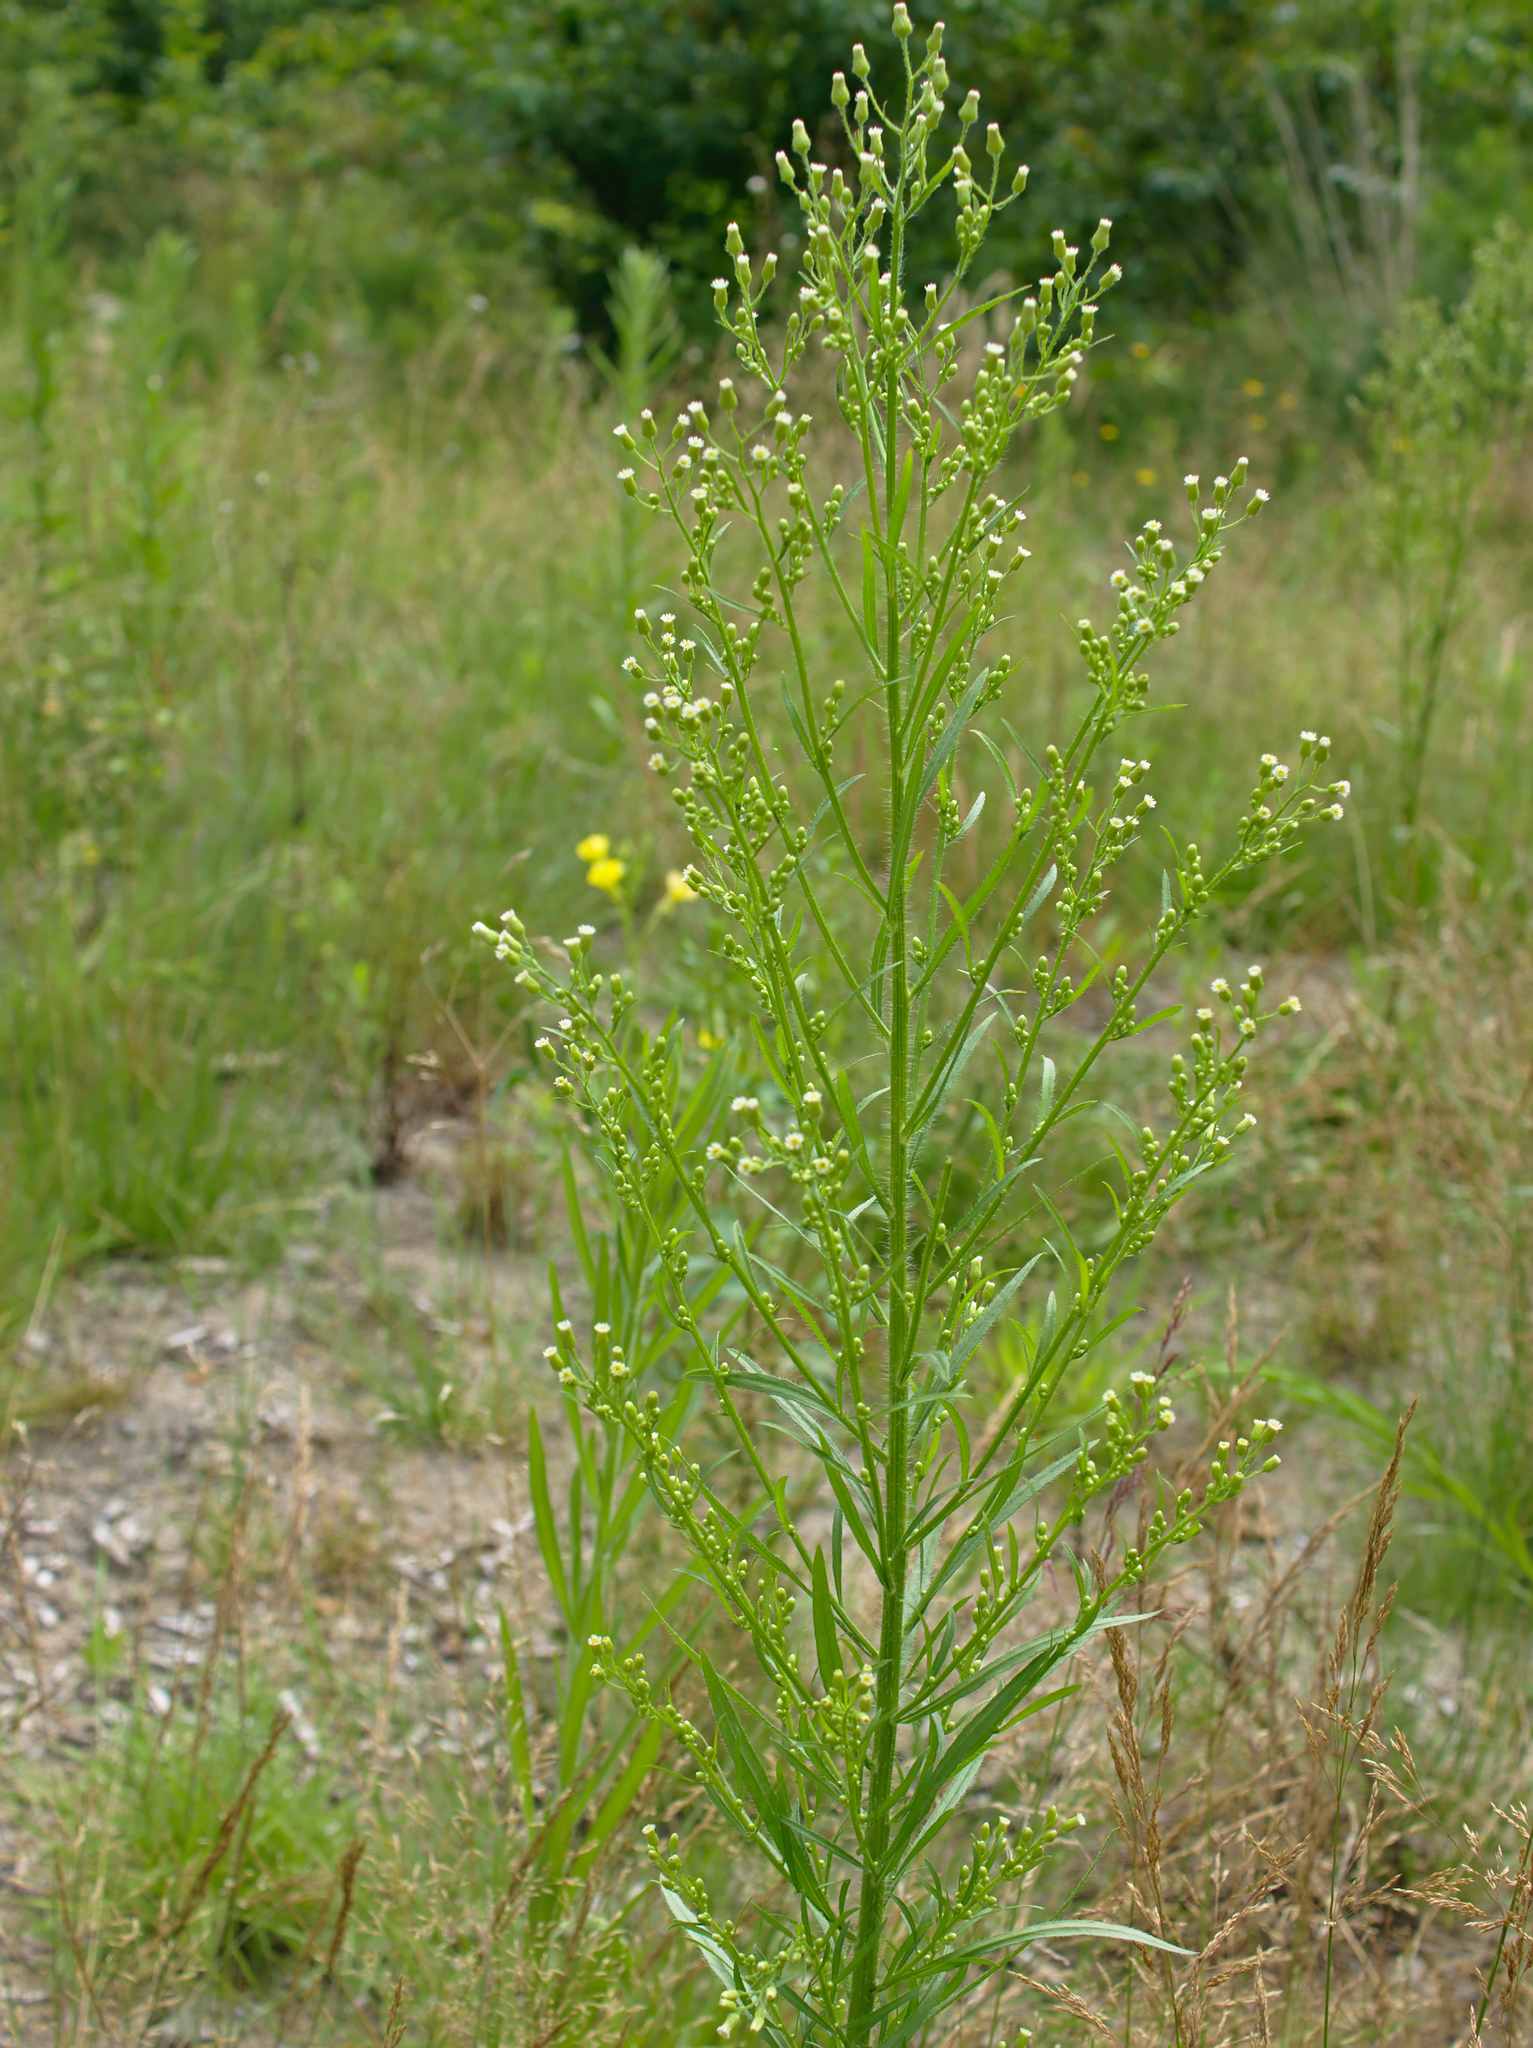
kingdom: Plantae
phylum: Tracheophyta
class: Magnoliopsida
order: Asterales
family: Asteraceae
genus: Erigeron
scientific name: Erigeron canadensis
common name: Canadian fleabane
